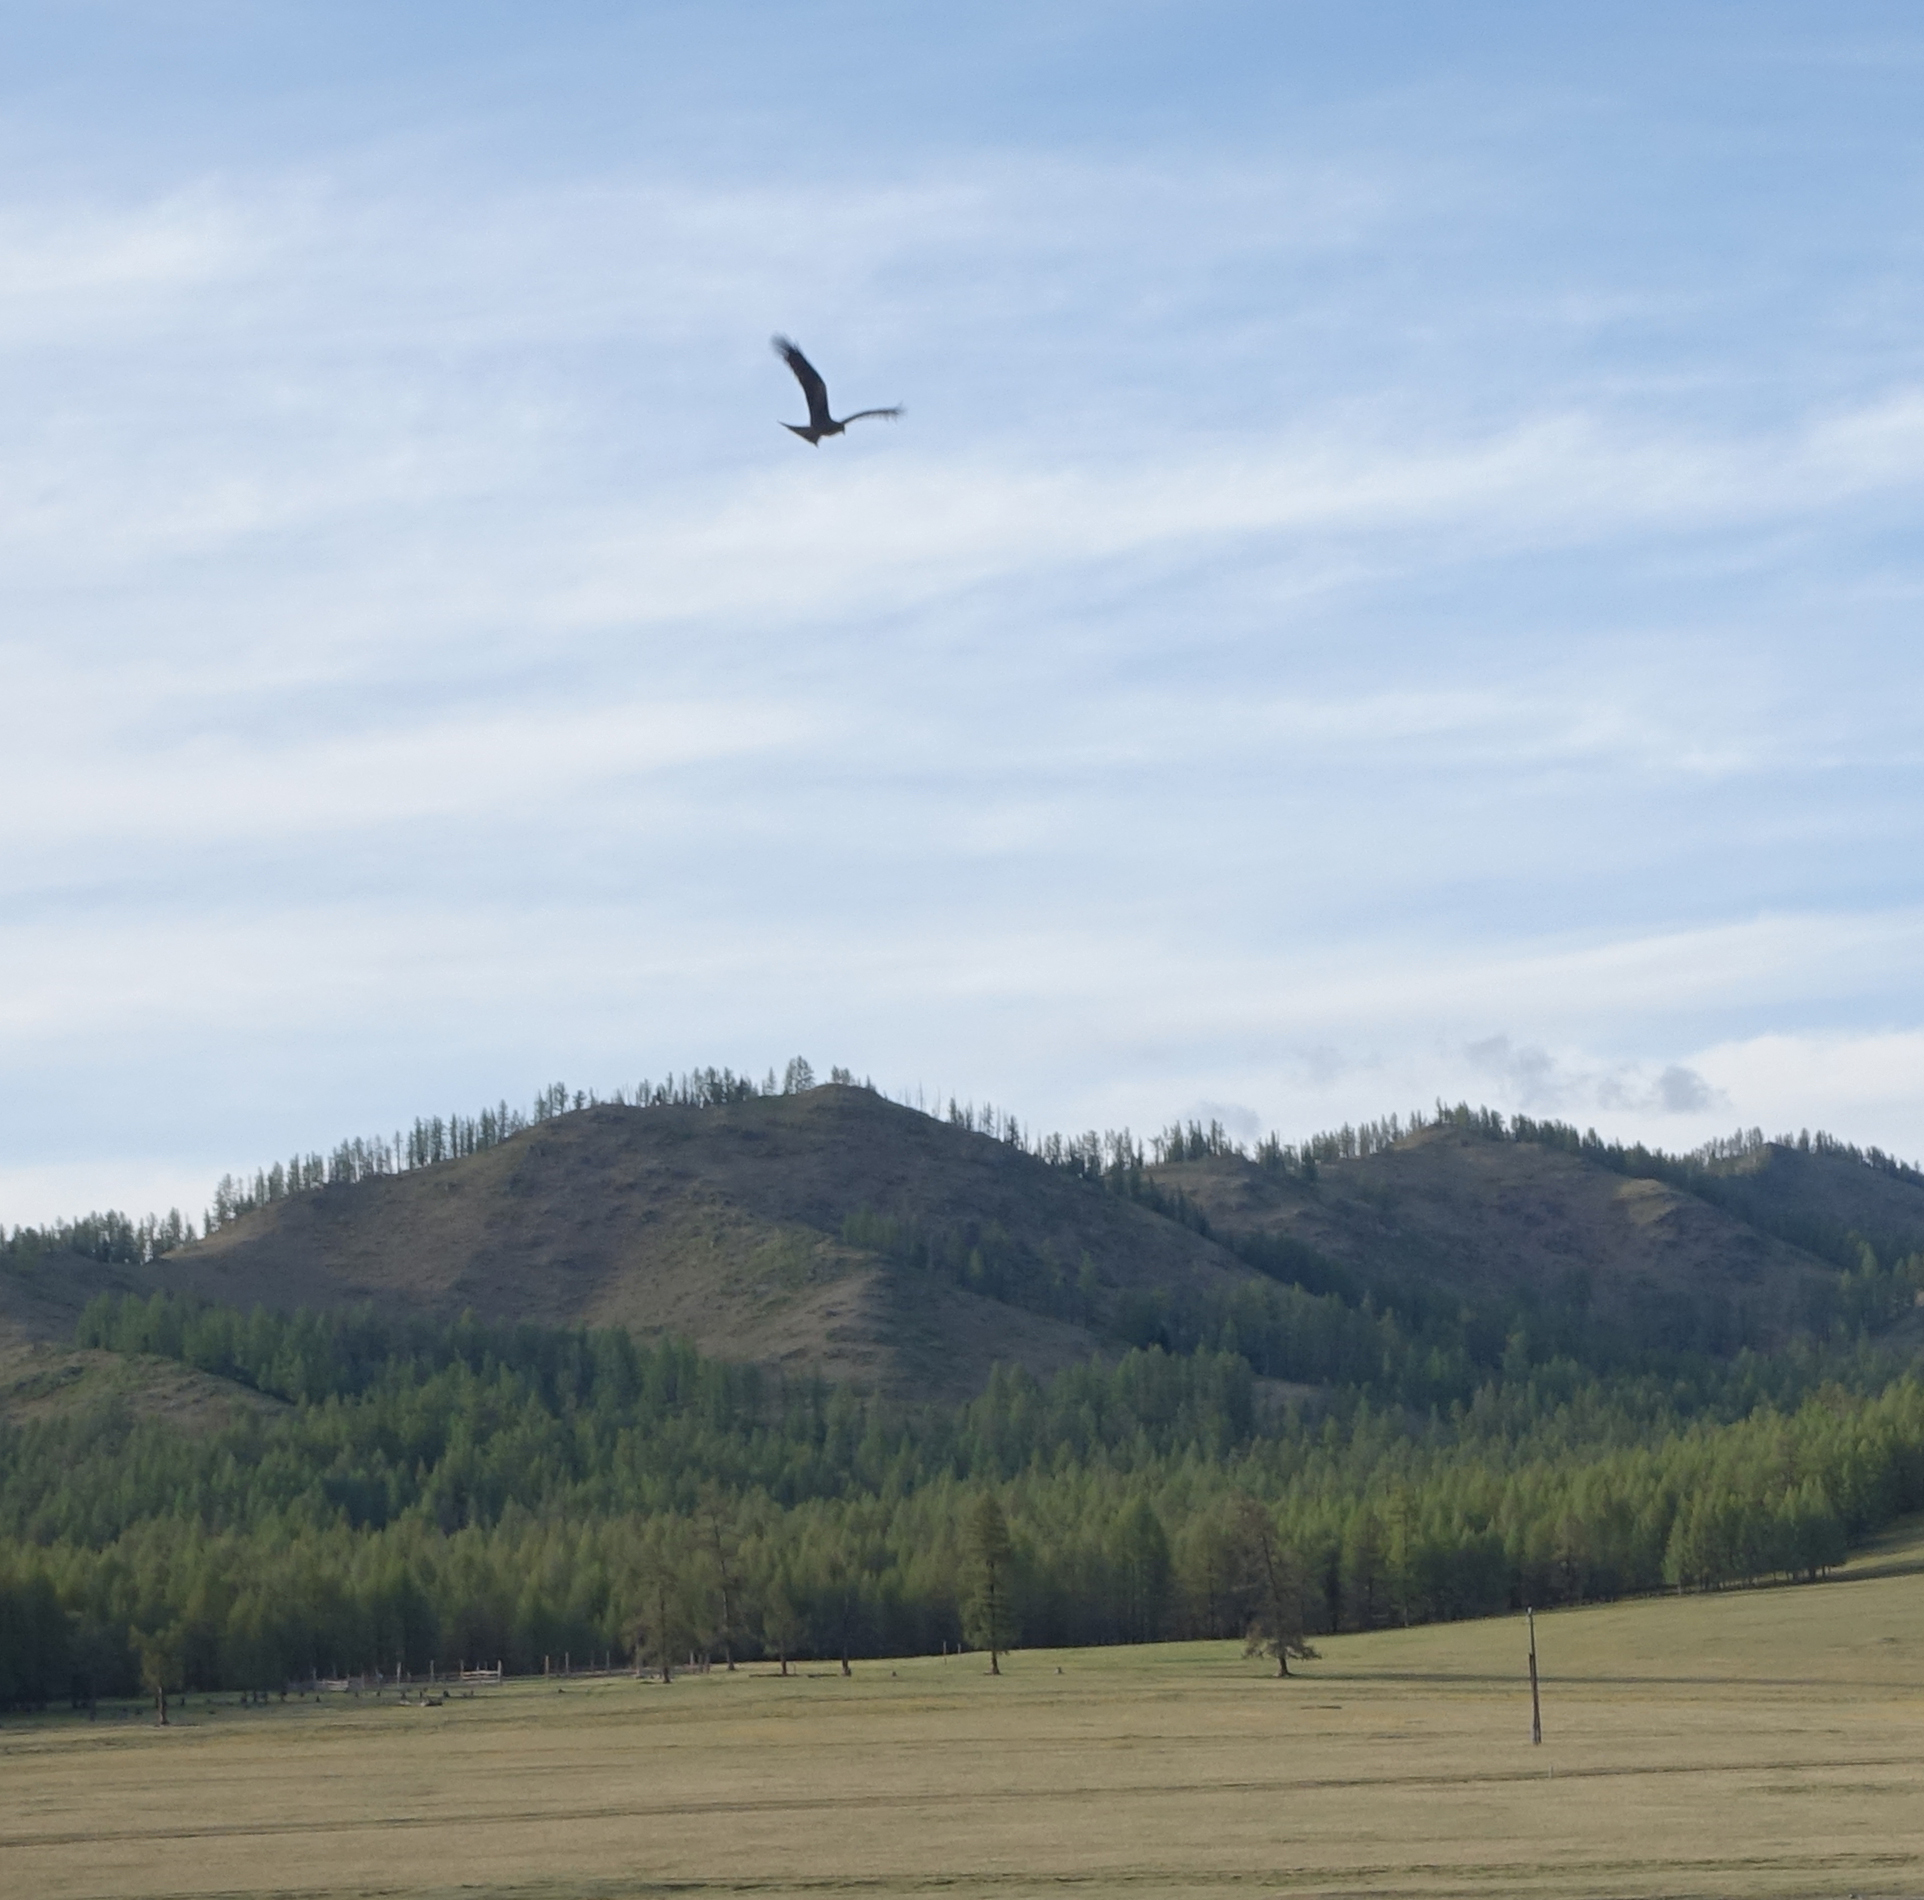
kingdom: Animalia
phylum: Chordata
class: Aves
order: Accipitriformes
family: Accipitridae
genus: Milvus
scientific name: Milvus migrans
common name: Black kite
